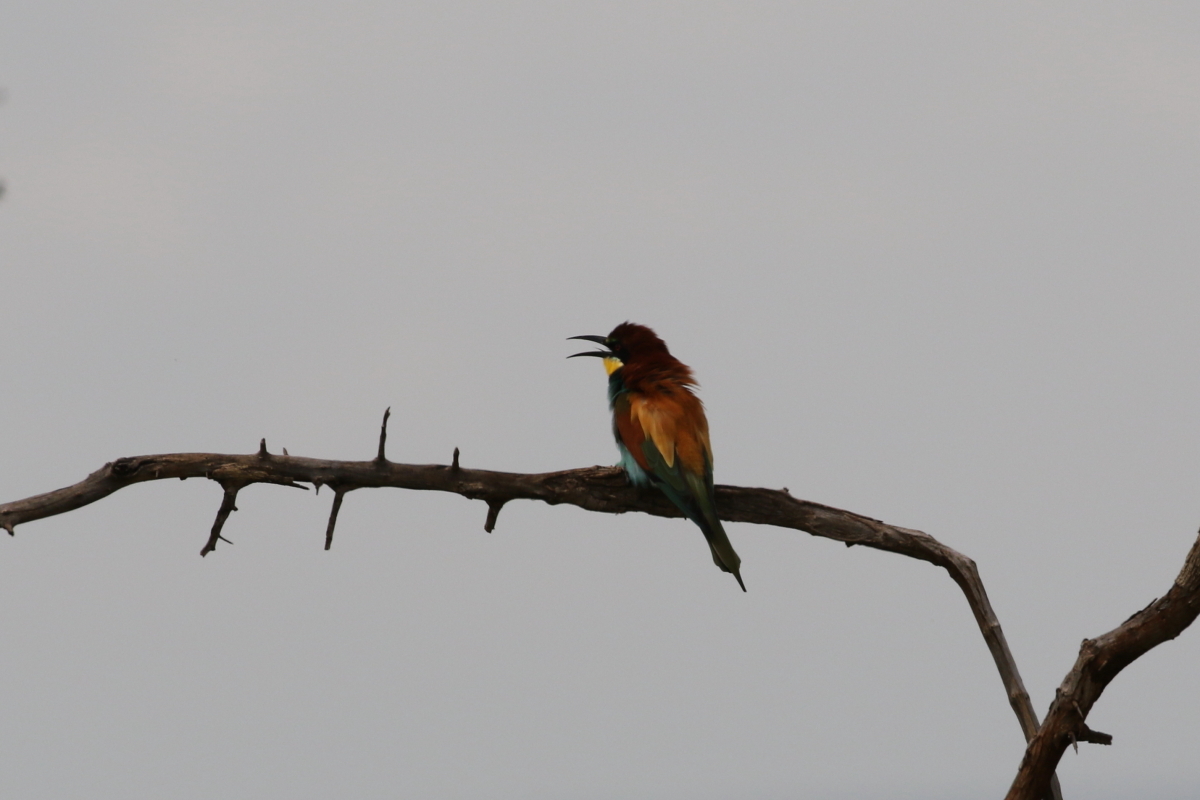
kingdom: Animalia
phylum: Chordata
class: Aves
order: Coraciiformes
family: Meropidae
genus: Merops
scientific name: Merops apiaster
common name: European bee-eater
